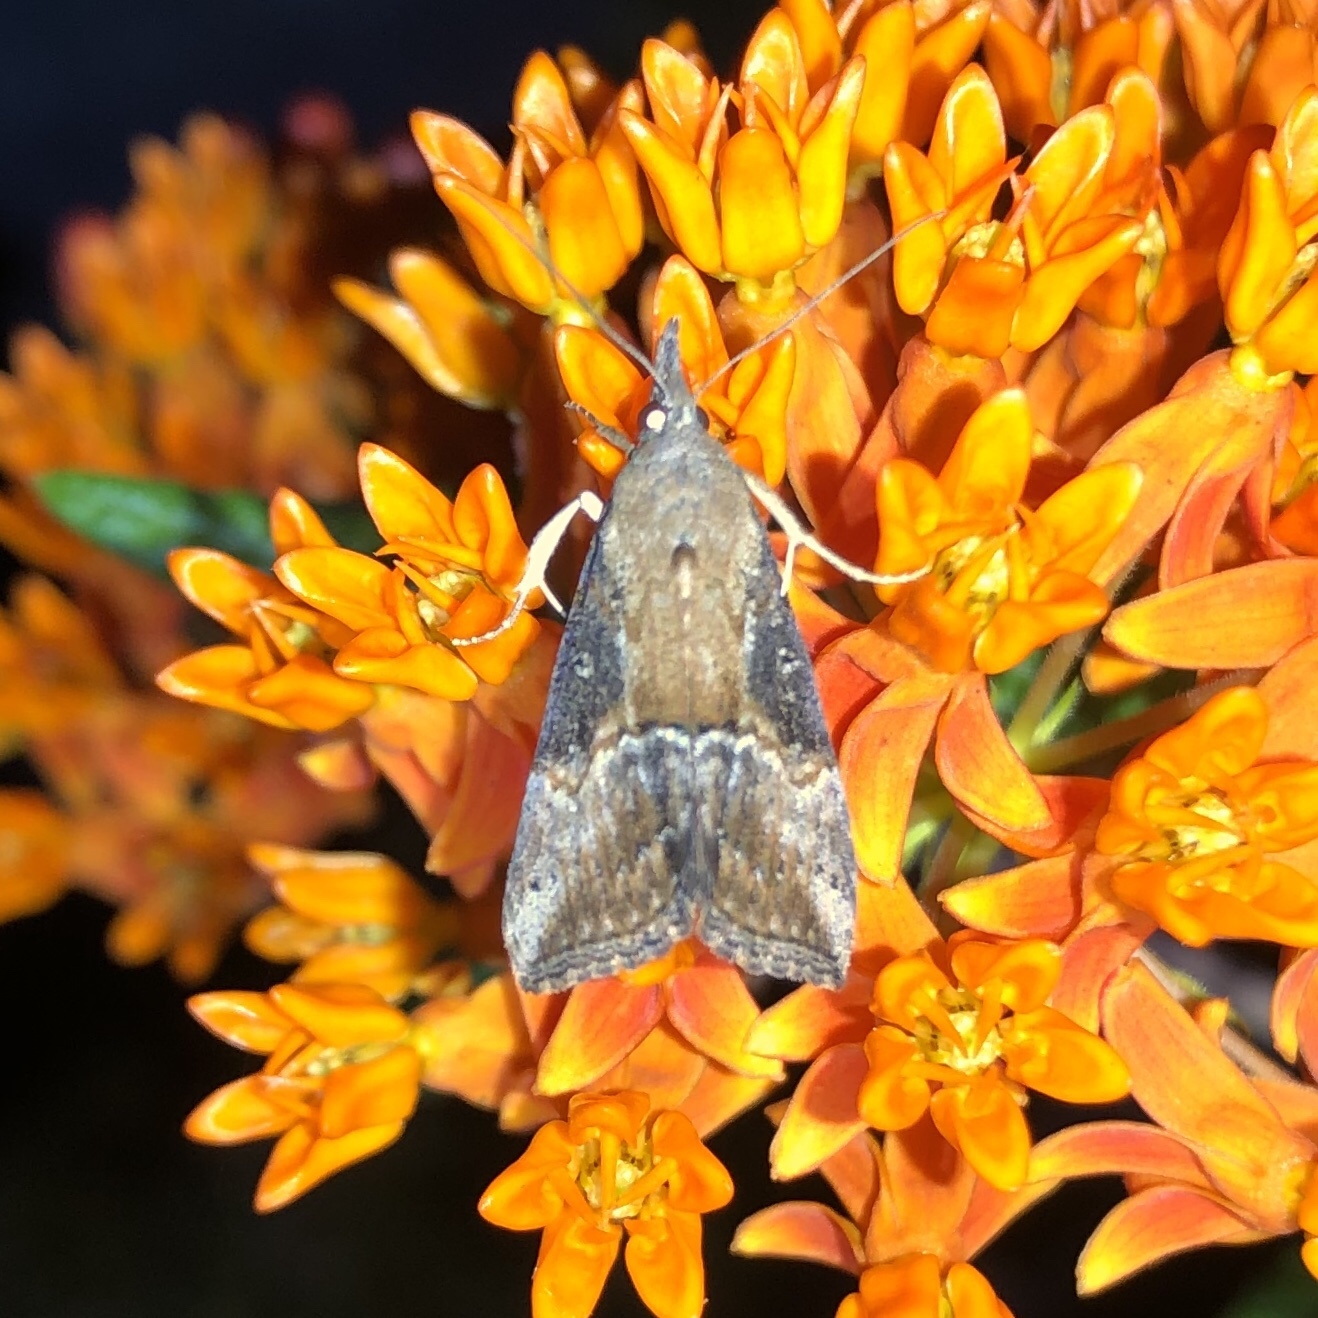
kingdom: Animalia
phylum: Arthropoda
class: Insecta
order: Lepidoptera
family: Erebidae
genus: Hypena
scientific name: Hypena scabra
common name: Green cloverworm
